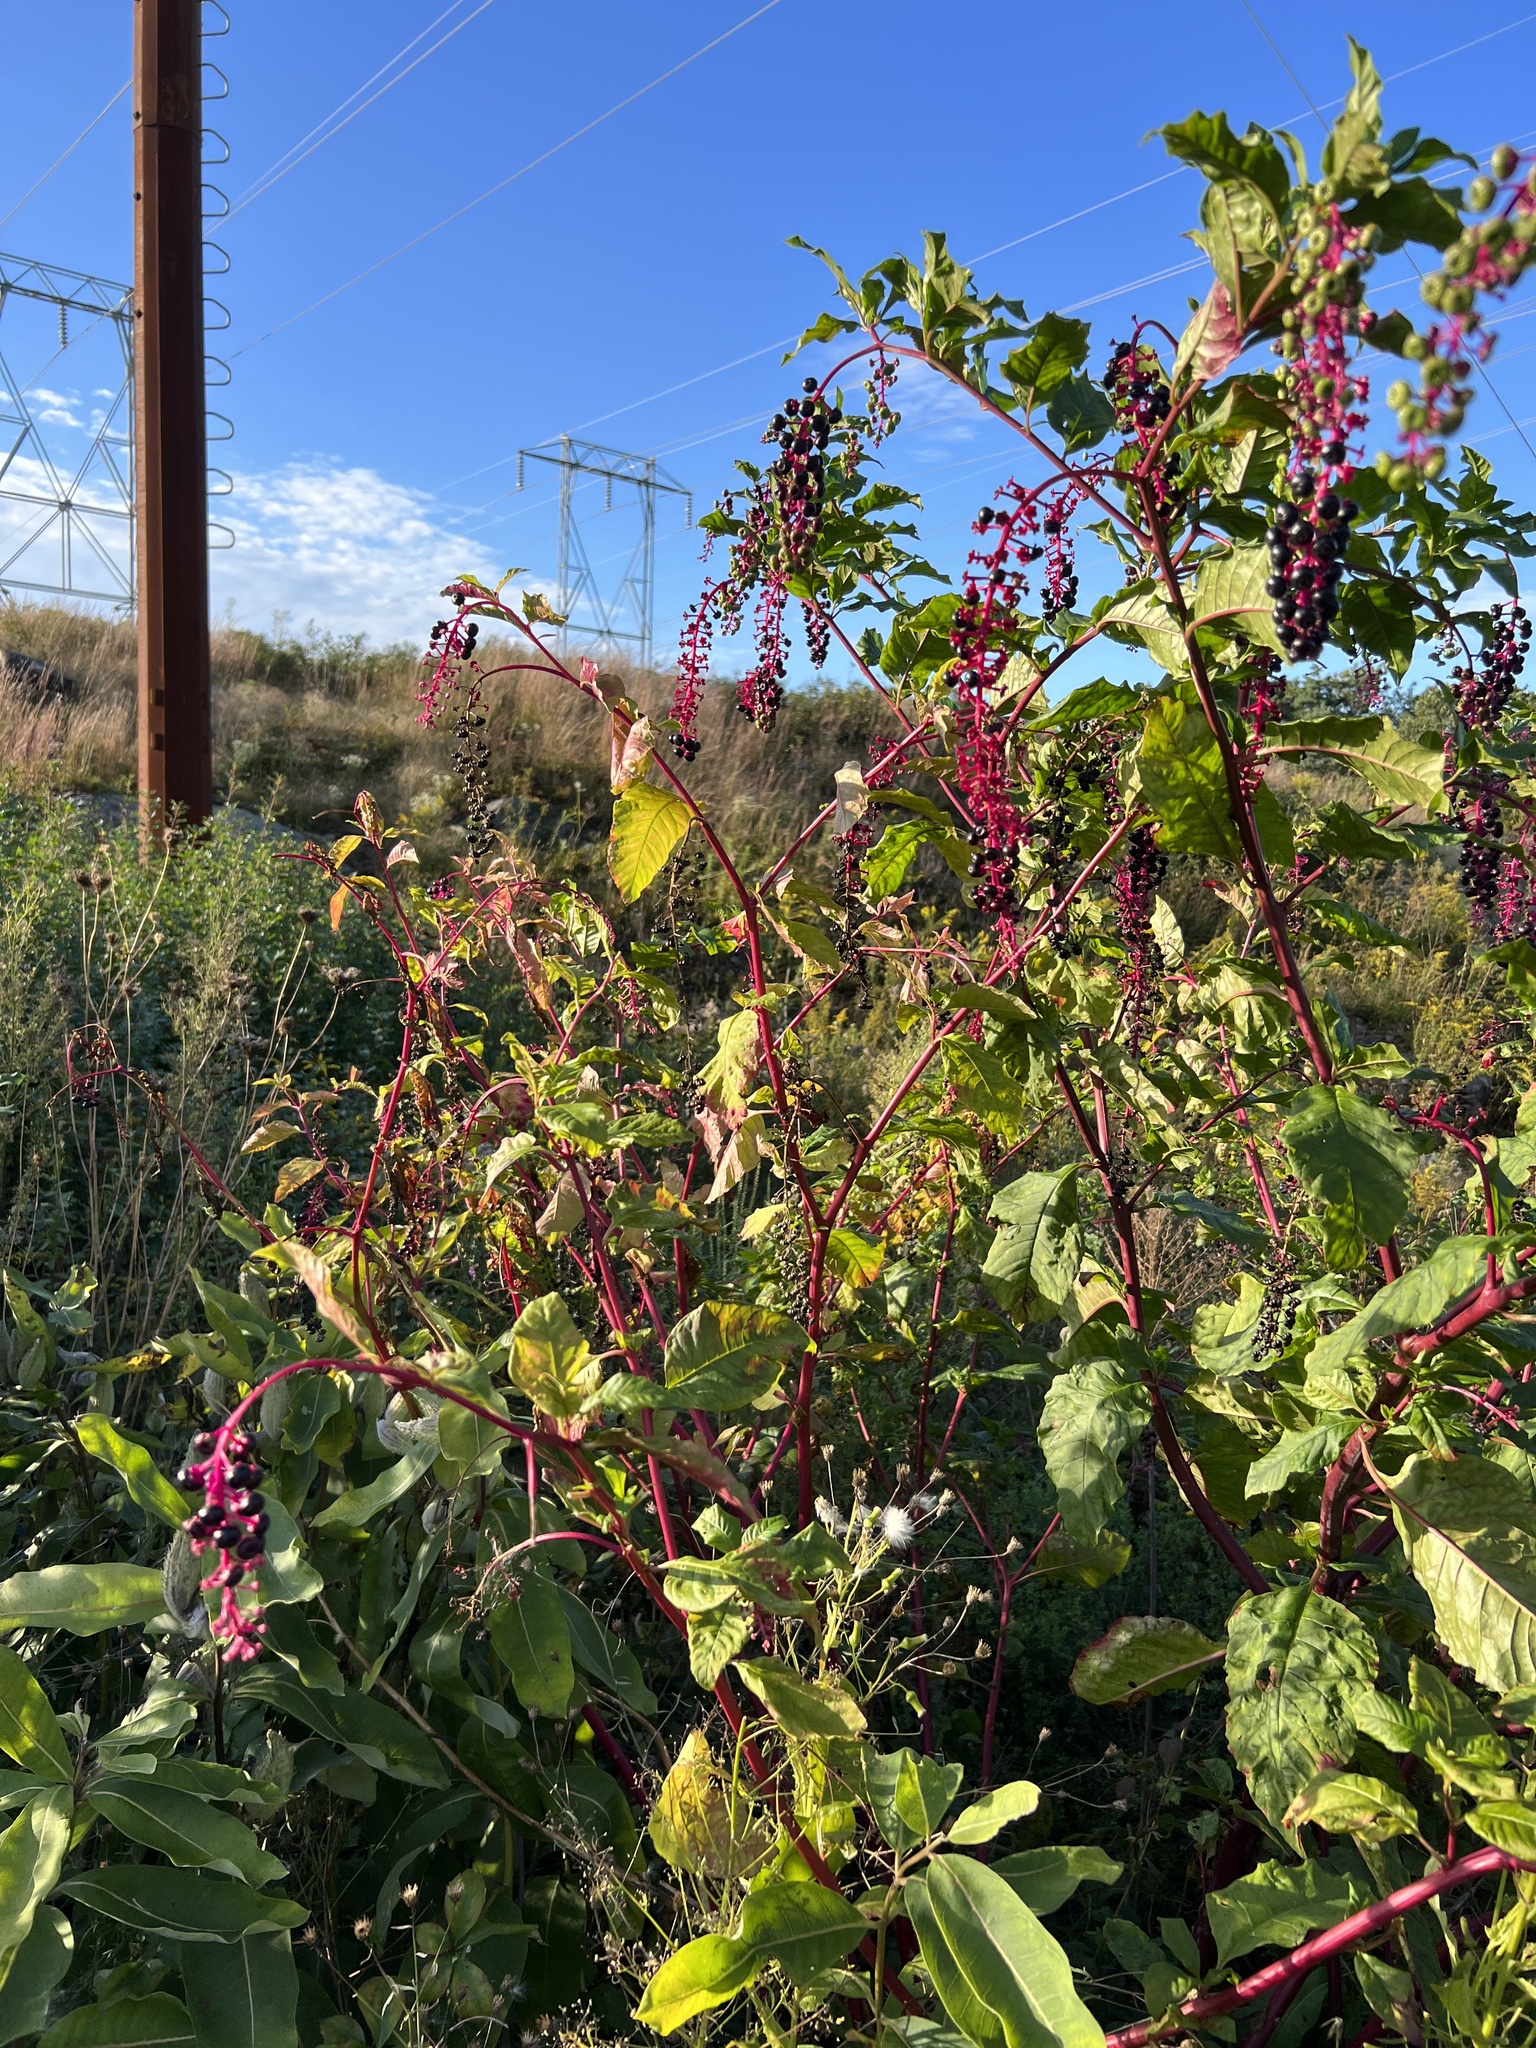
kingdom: Plantae
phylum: Tracheophyta
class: Magnoliopsida
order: Caryophyllales
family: Phytolaccaceae
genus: Phytolacca
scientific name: Phytolacca americana
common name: American pokeweed
